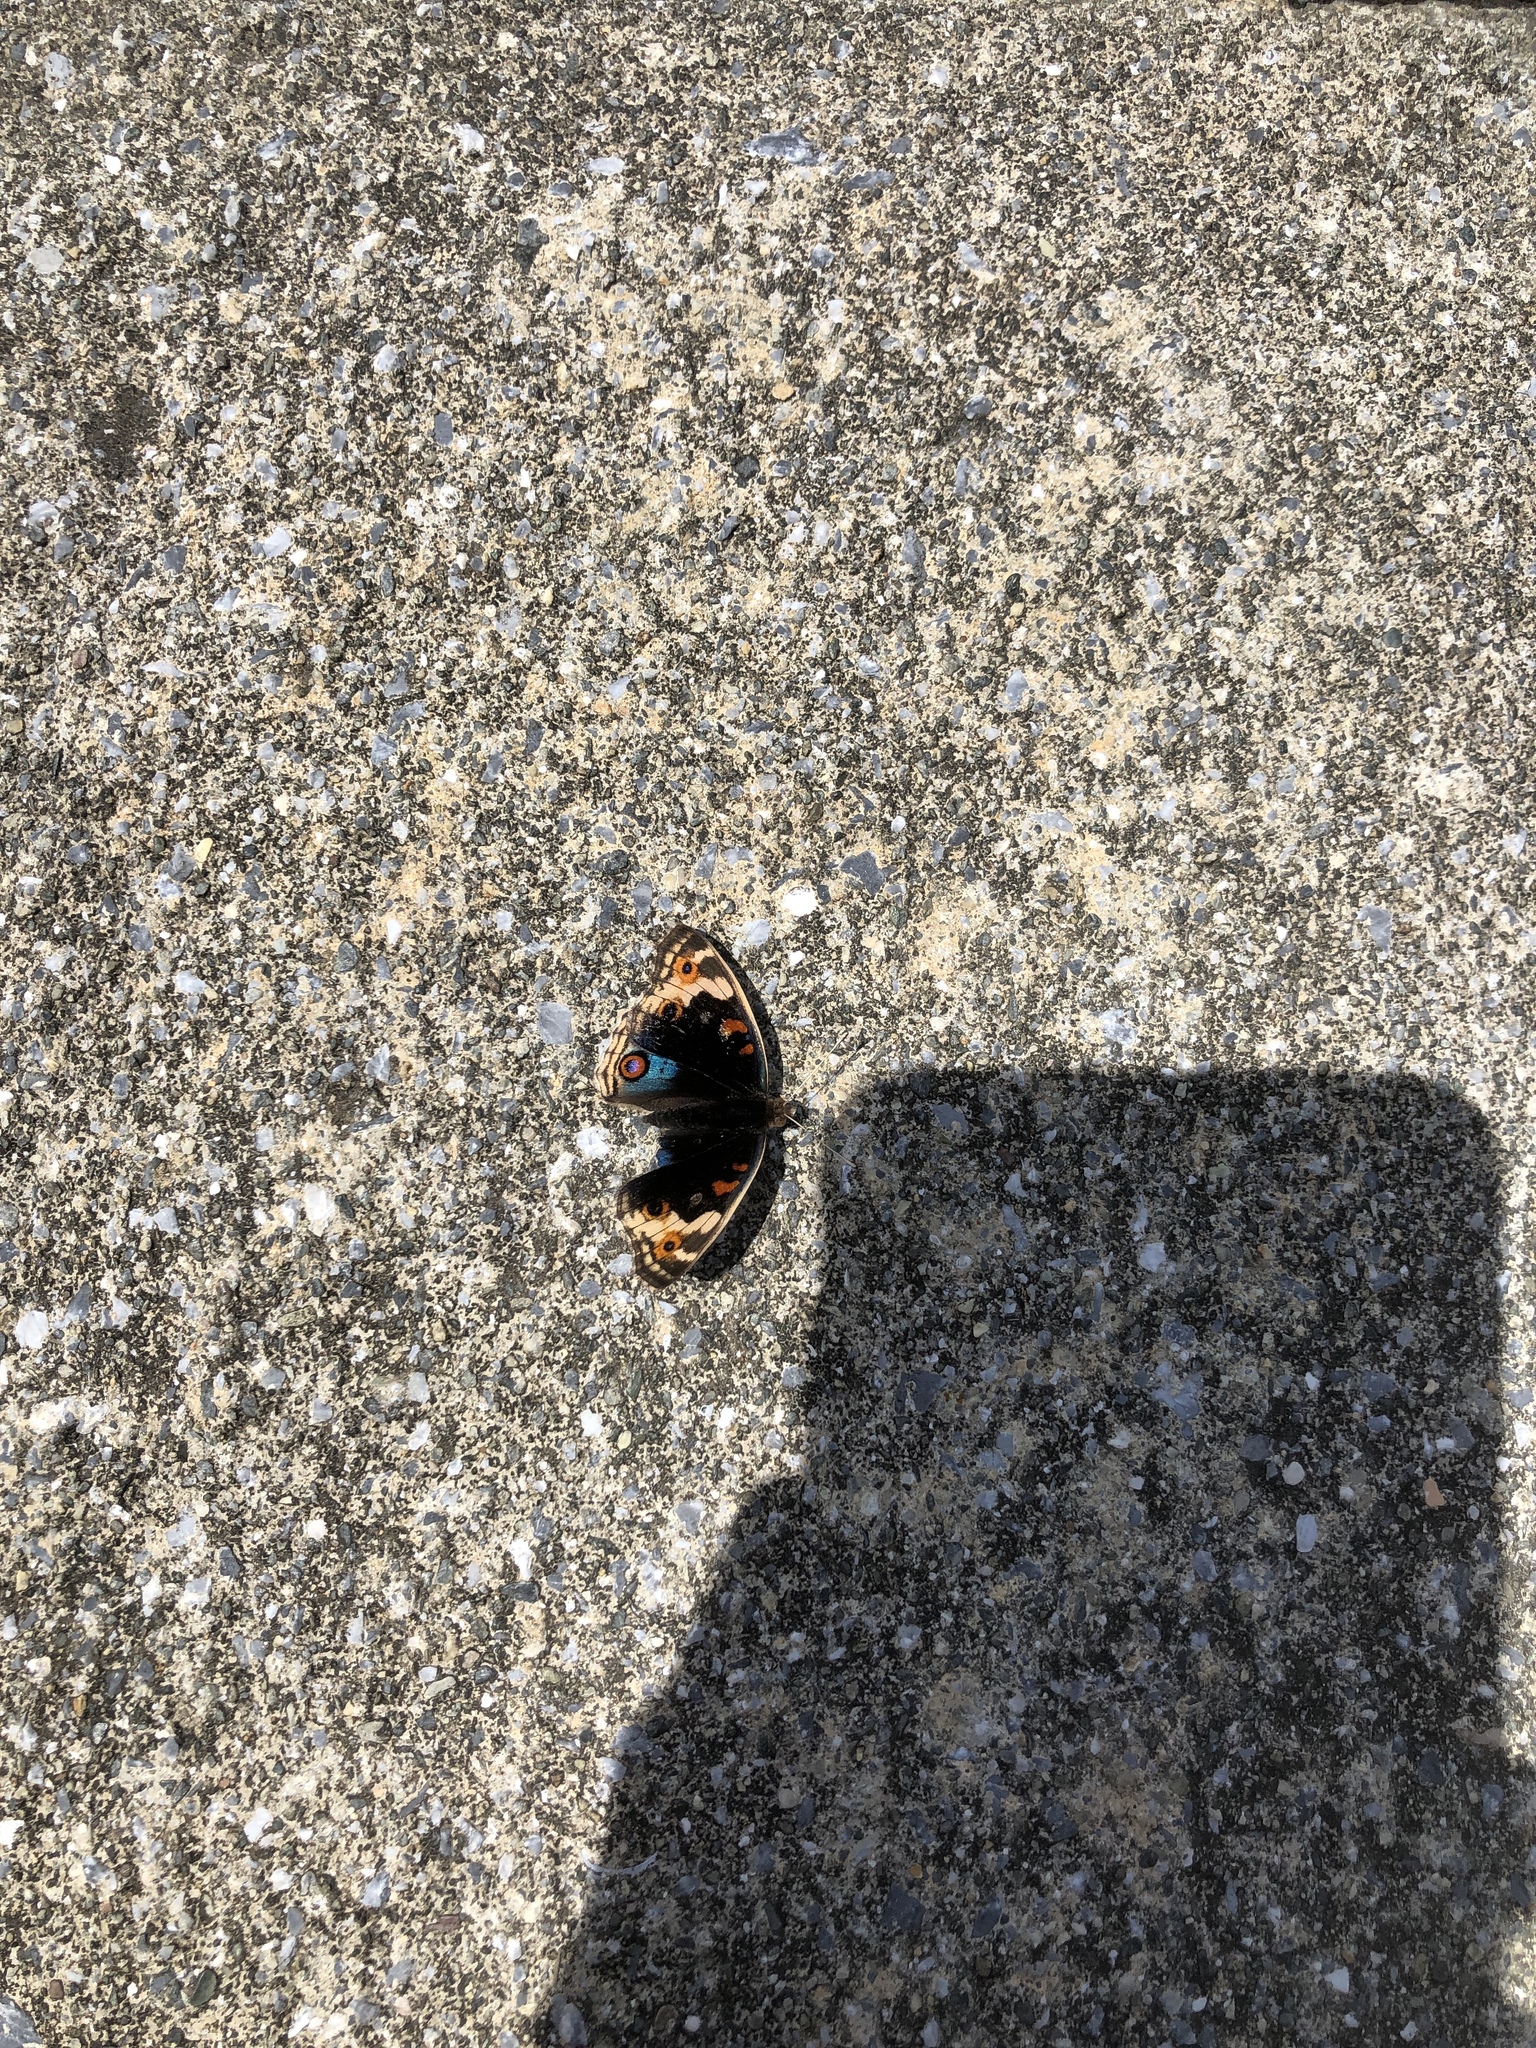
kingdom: Animalia
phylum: Arthropoda
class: Insecta
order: Lepidoptera
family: Nymphalidae
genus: Junonia
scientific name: Junonia orithya
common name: Blue pansy
